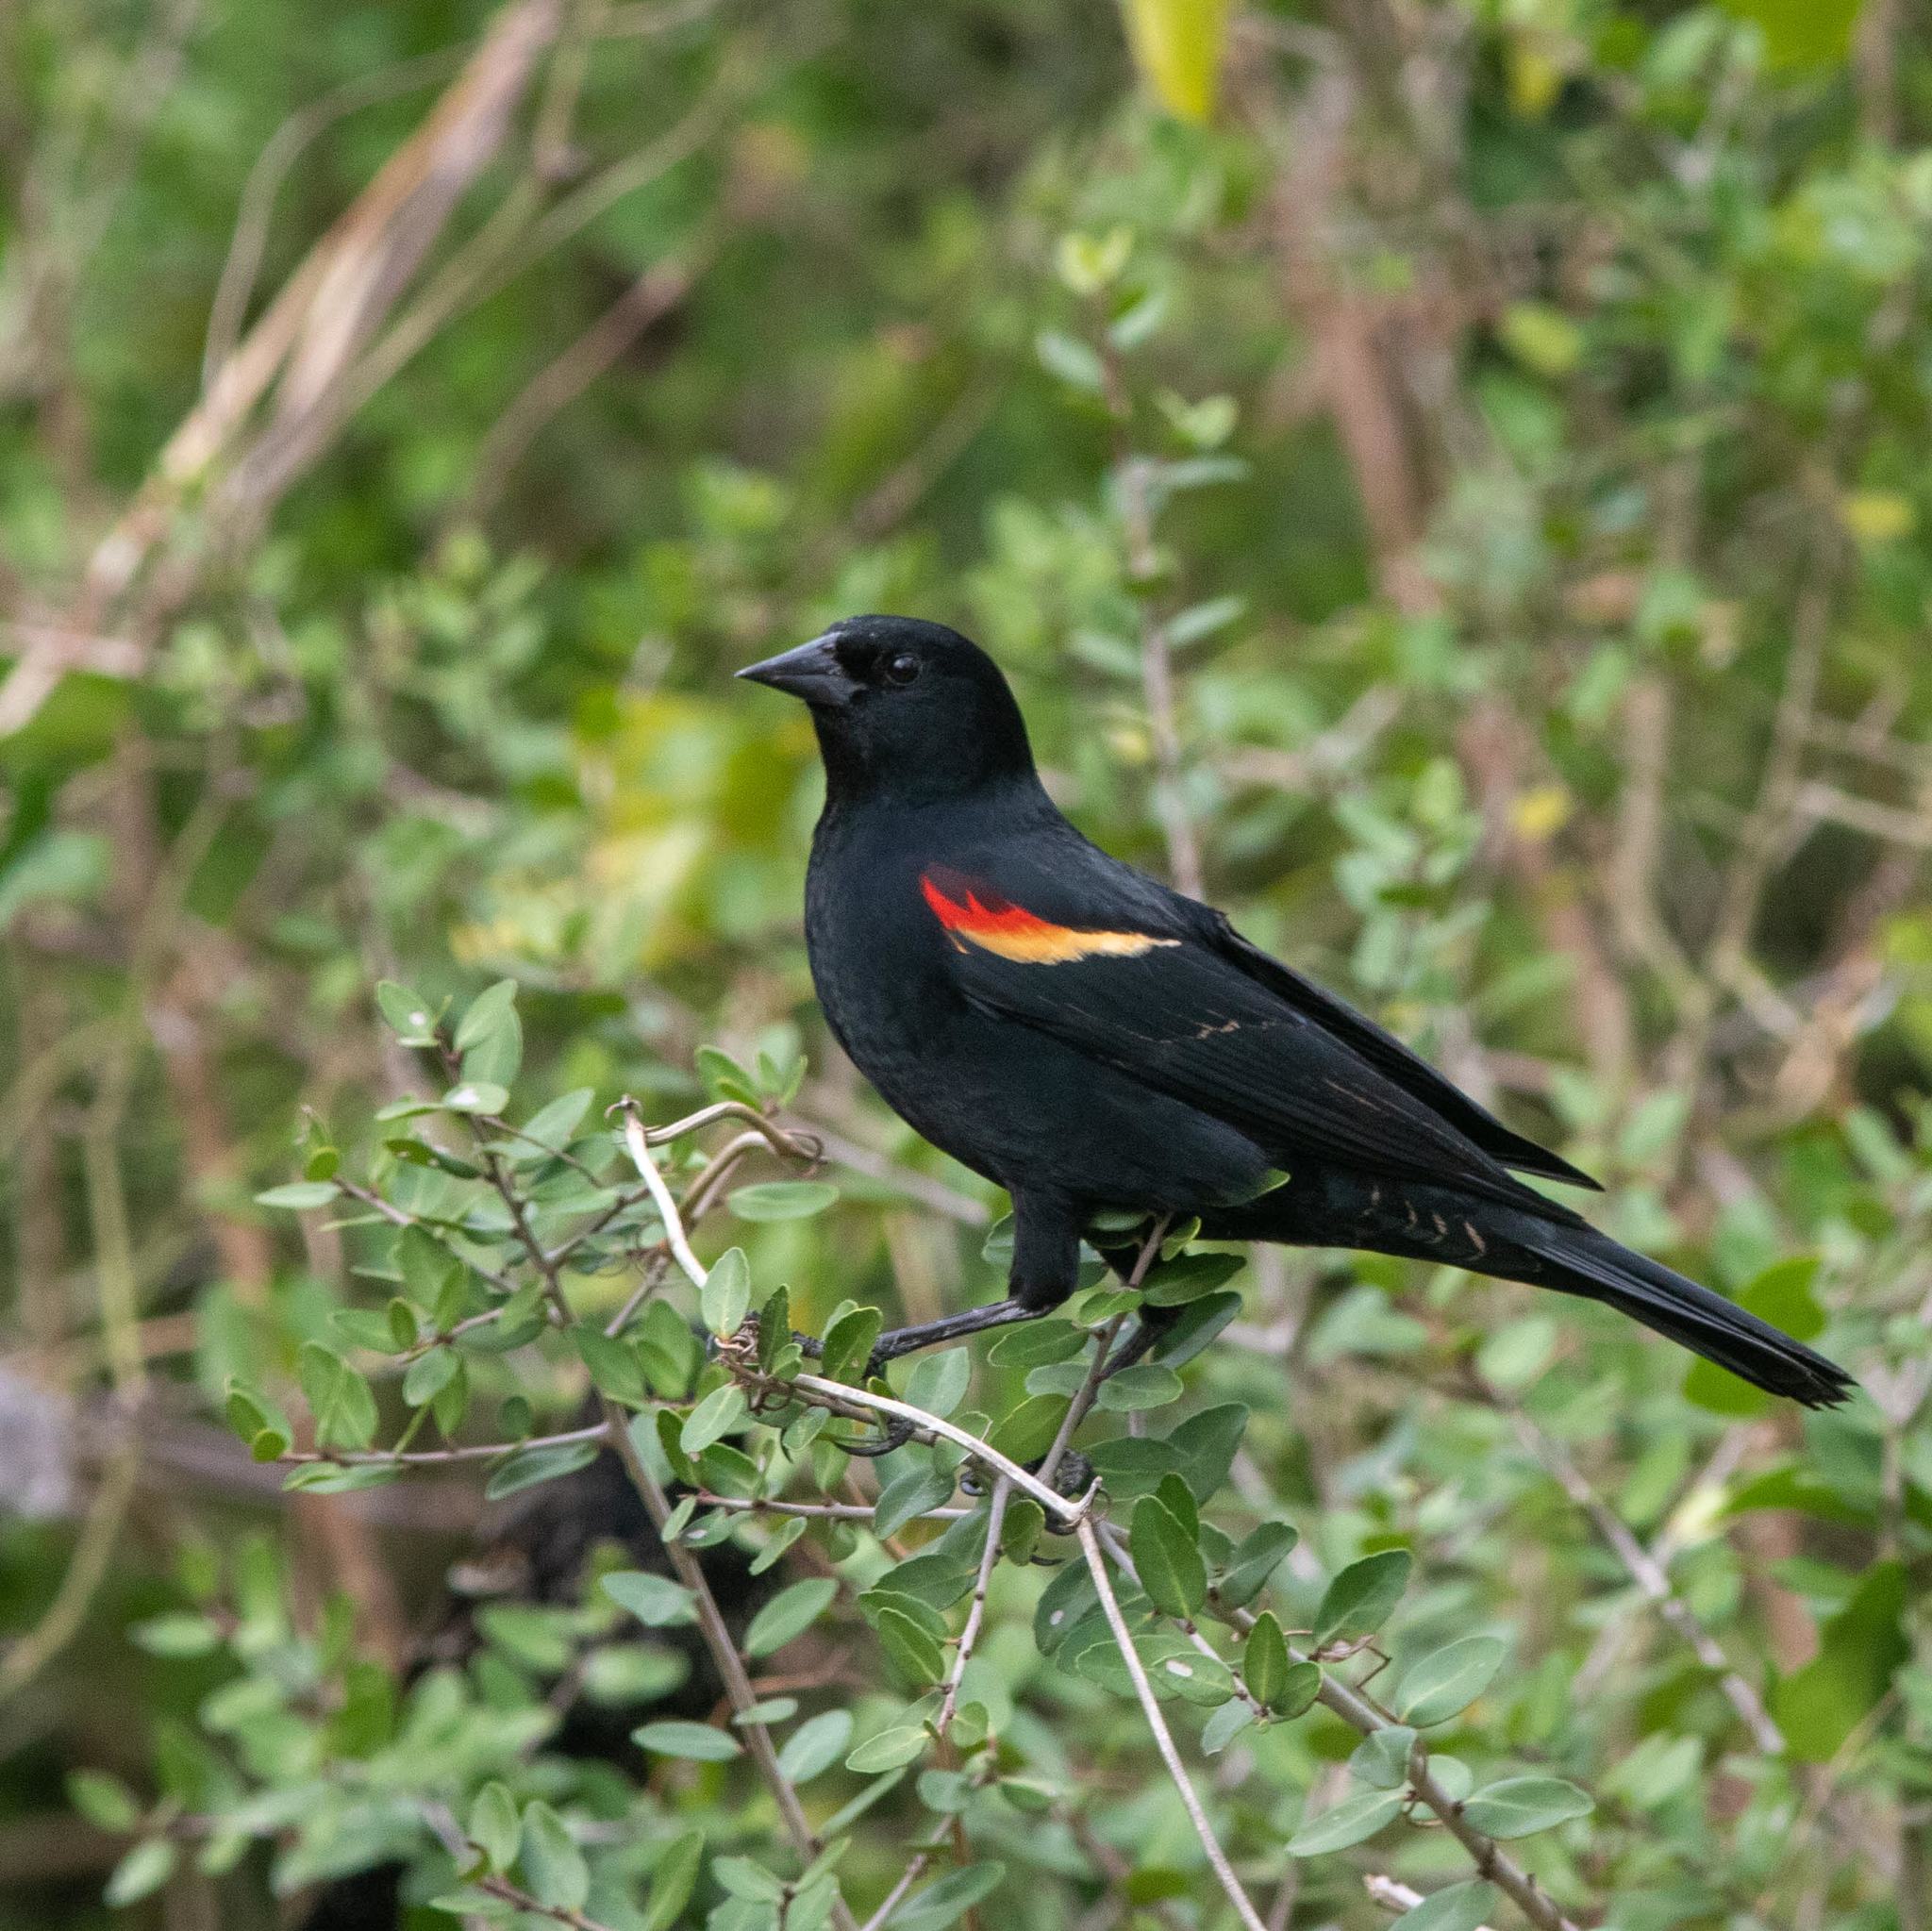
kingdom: Animalia
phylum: Chordata
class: Aves
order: Passeriformes
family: Icteridae
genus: Agelaius
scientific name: Agelaius phoeniceus
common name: Red-winged blackbird
